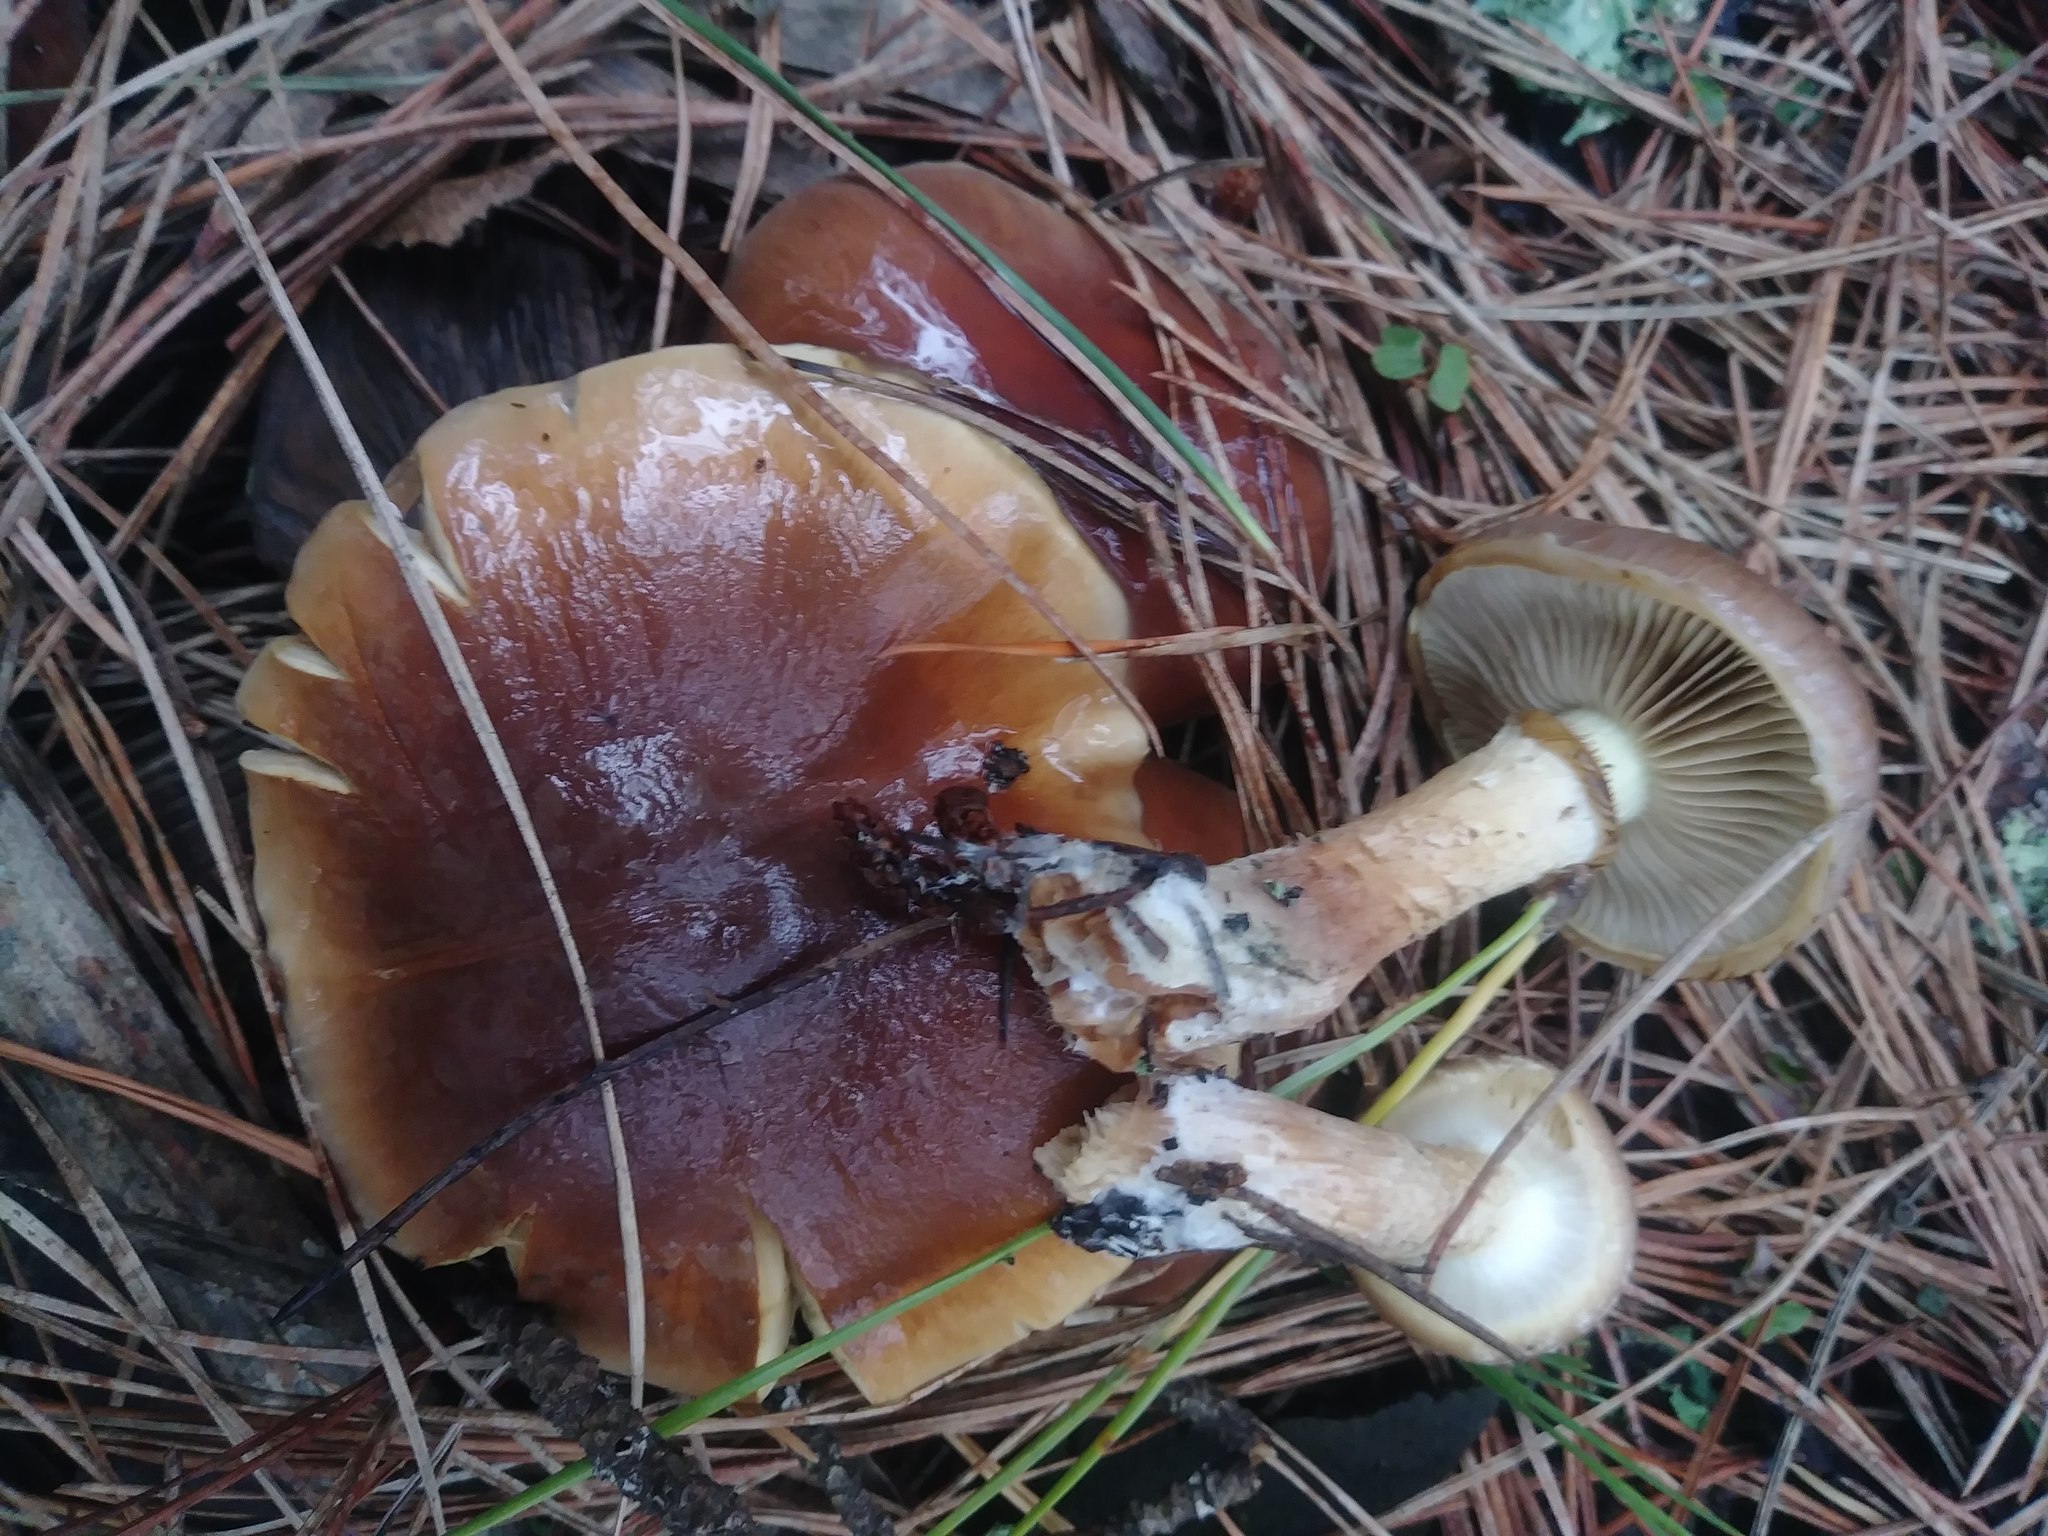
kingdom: Fungi
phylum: Basidiomycota
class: Agaricomycetes
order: Agaricales
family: Strophariaceae
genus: Pholiota
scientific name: Pholiota velaglutinosa
